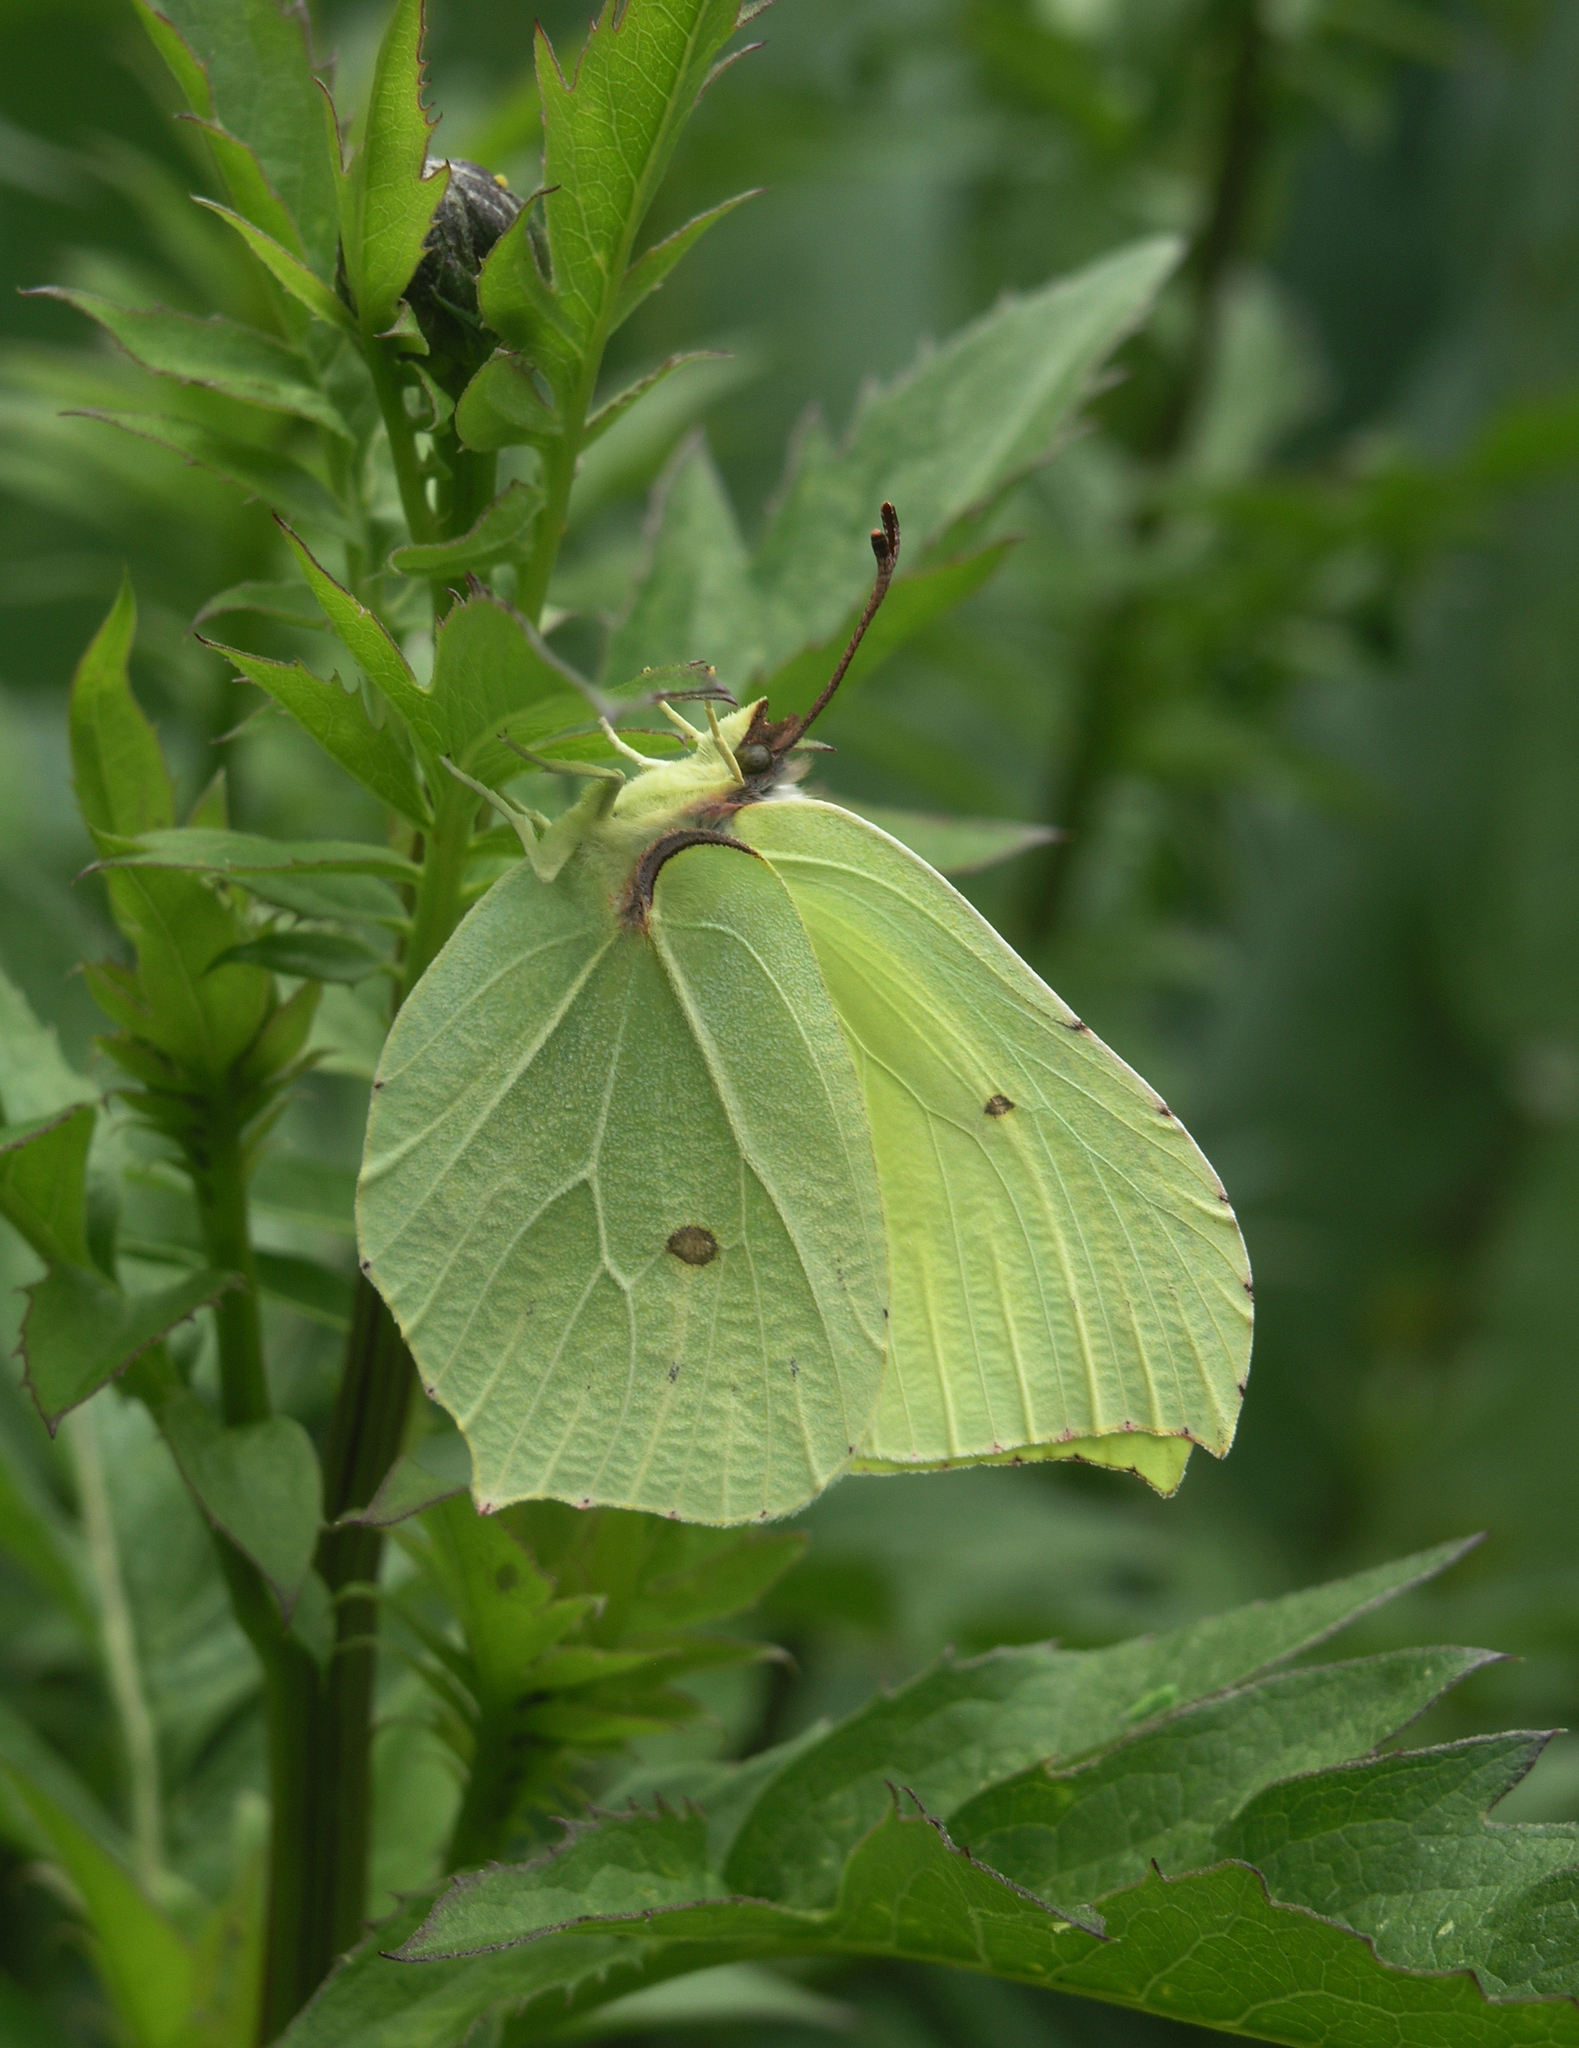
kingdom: Animalia
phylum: Arthropoda
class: Insecta
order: Lepidoptera
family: Pieridae
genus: Gonepteryx
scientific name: Gonepteryx rhamni
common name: Brimstone
